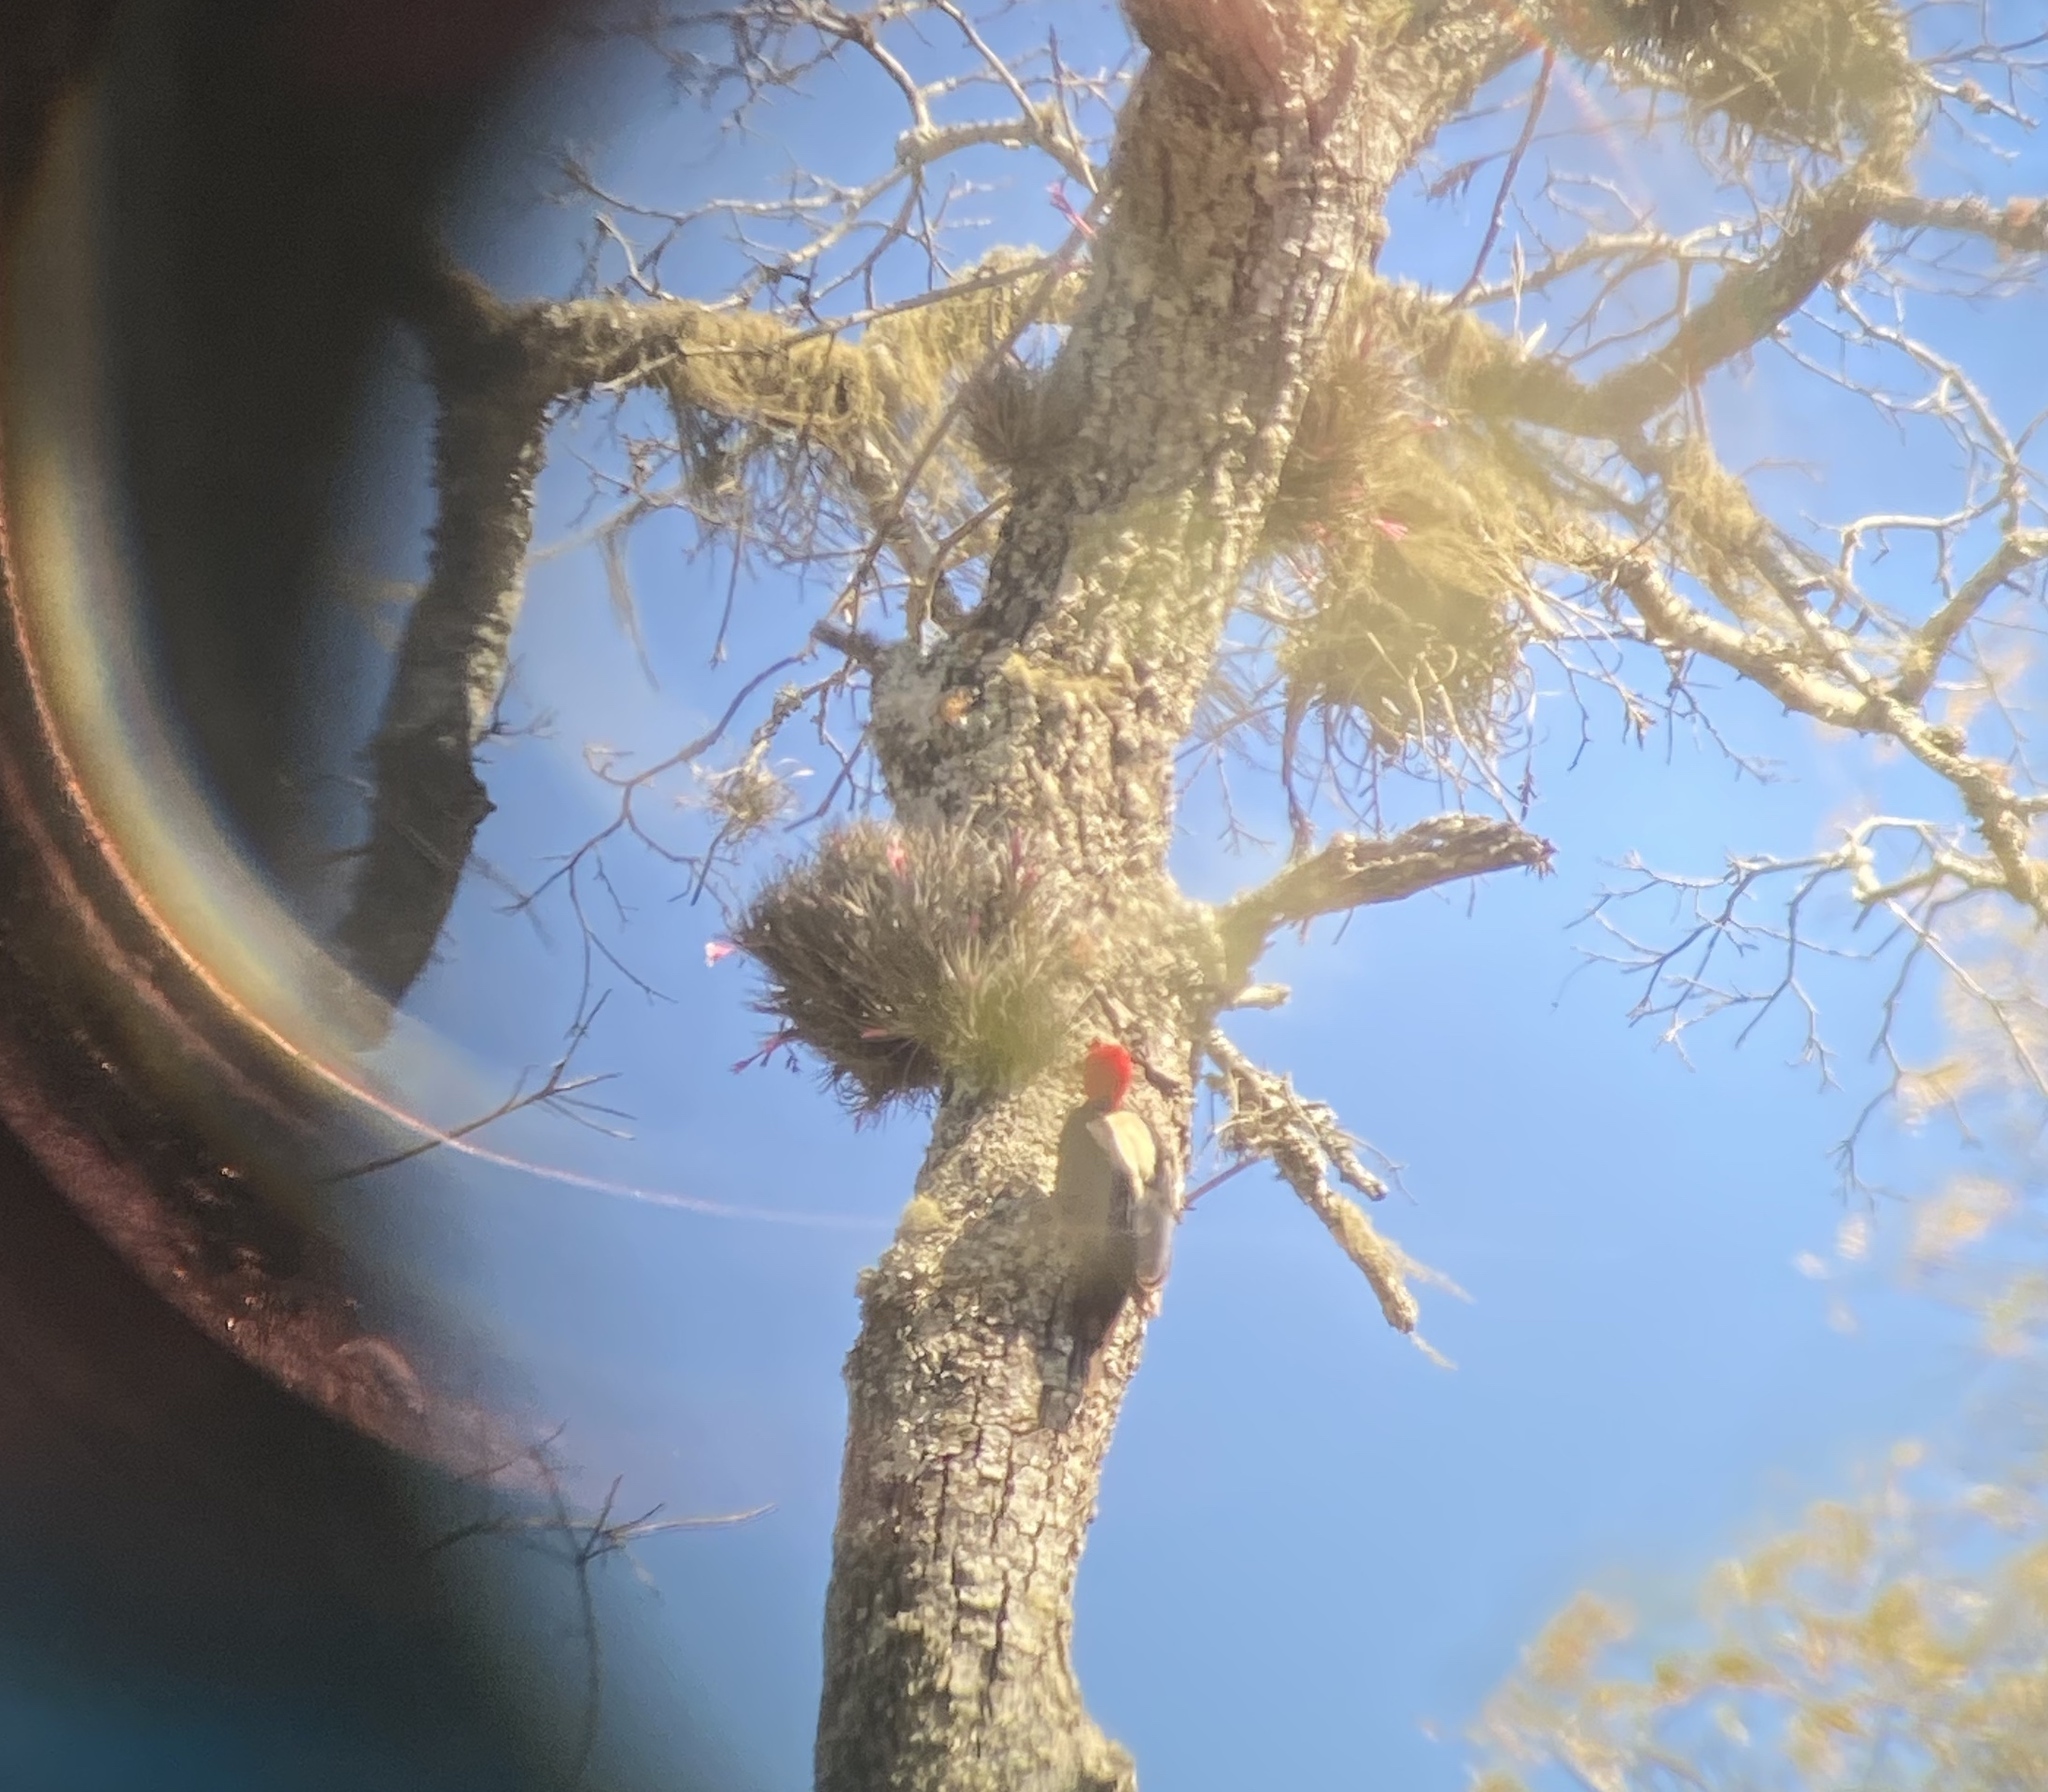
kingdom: Animalia
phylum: Chordata
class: Aves
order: Piciformes
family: Picidae
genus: Campephilus
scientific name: Campephilus leucopogon
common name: Cream-backed woodpecker
